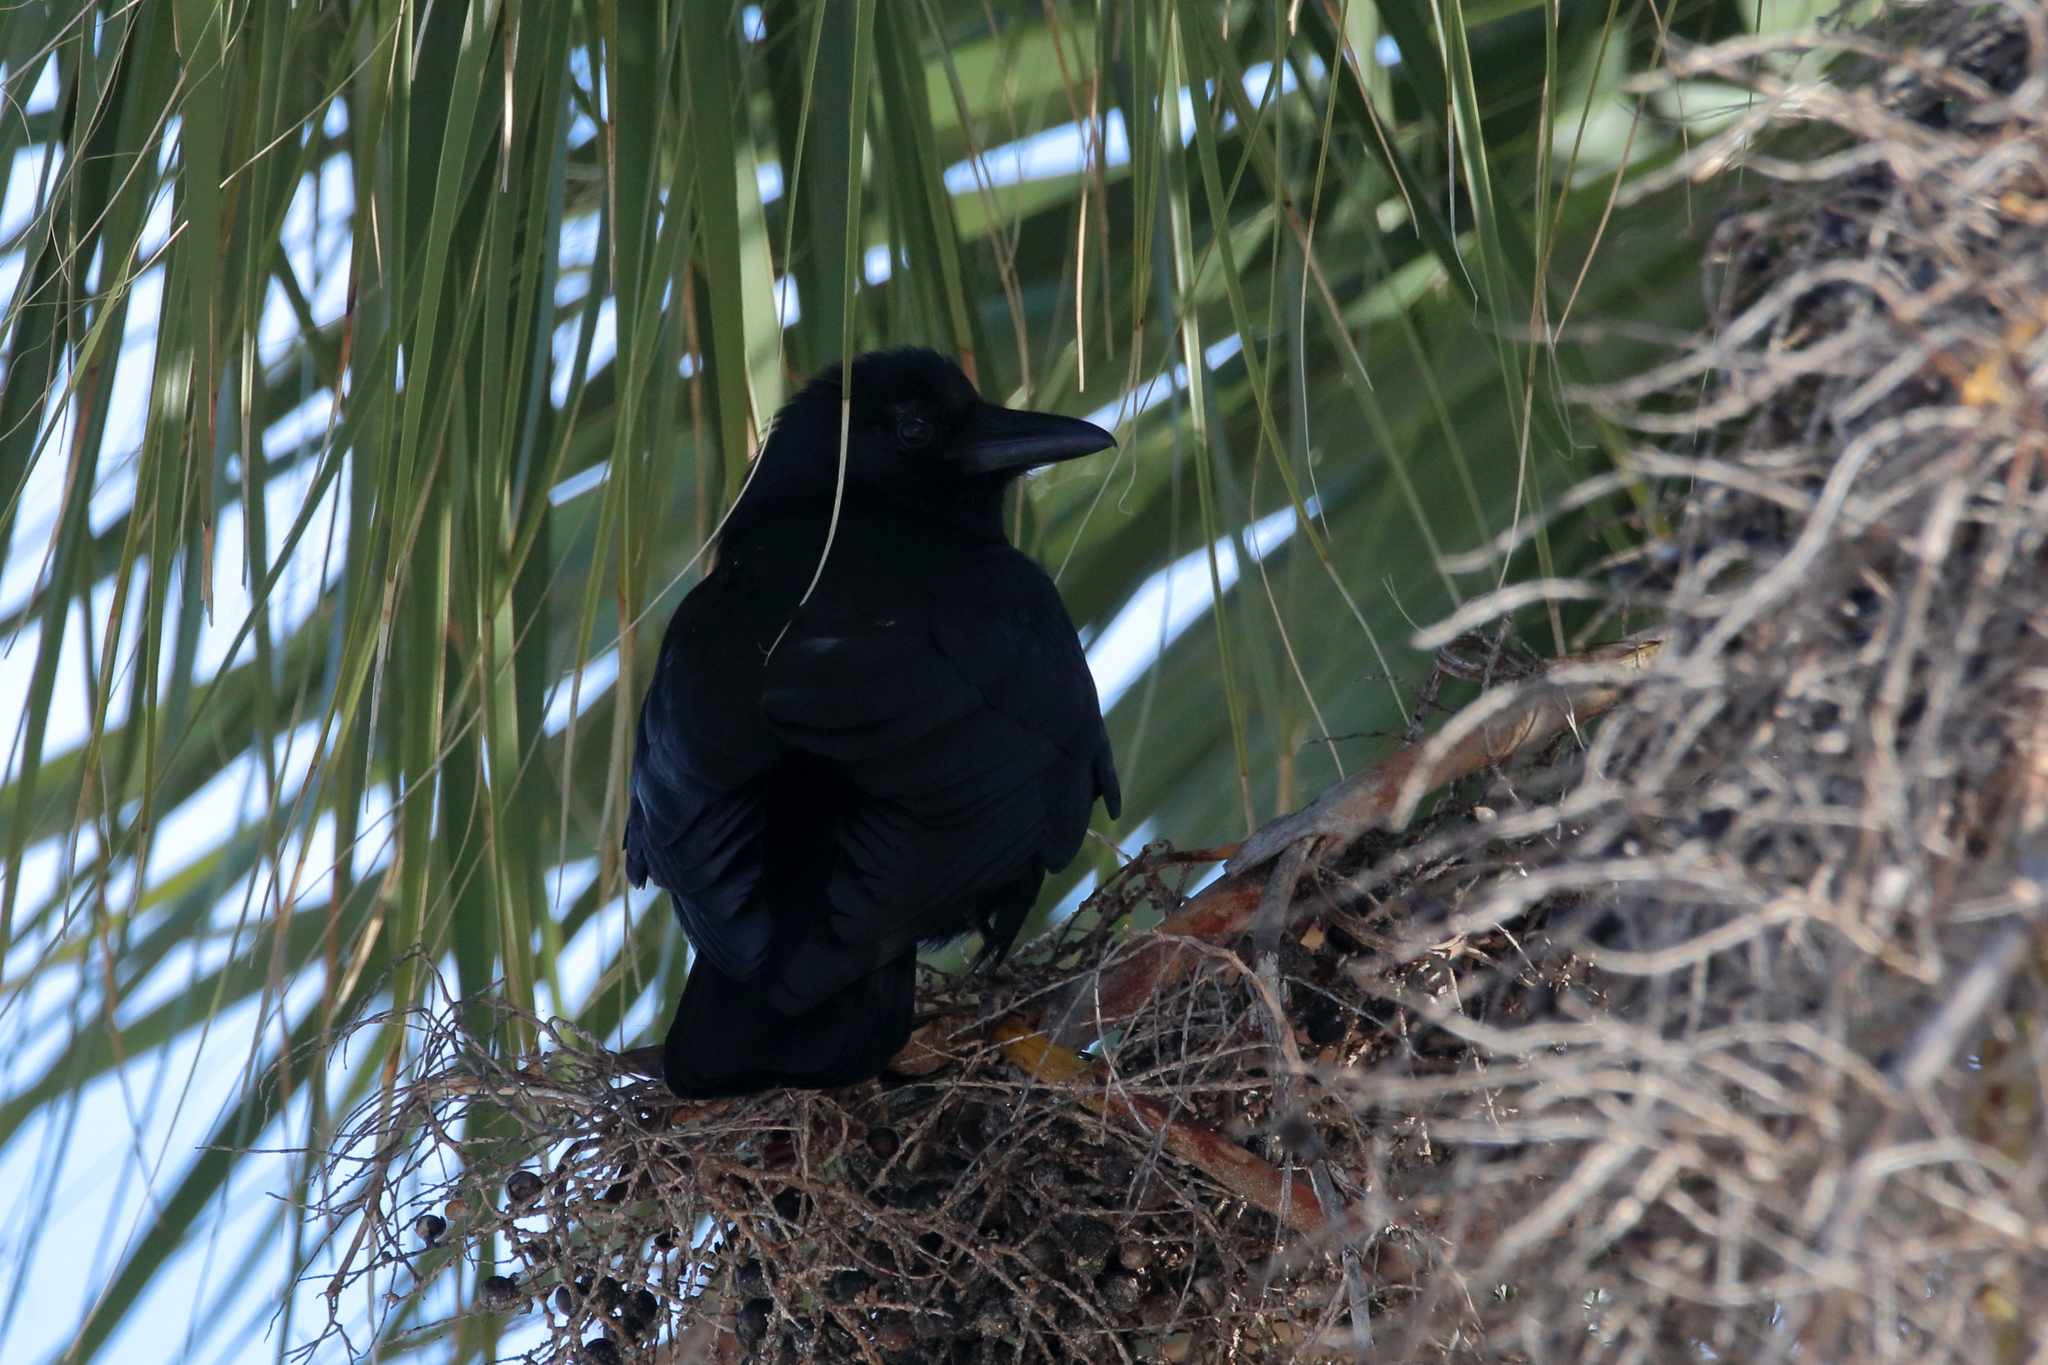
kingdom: Animalia
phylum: Chordata
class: Aves
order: Passeriformes
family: Corvidae
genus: Corvus
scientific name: Corvus ossifragus
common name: Fish crow
